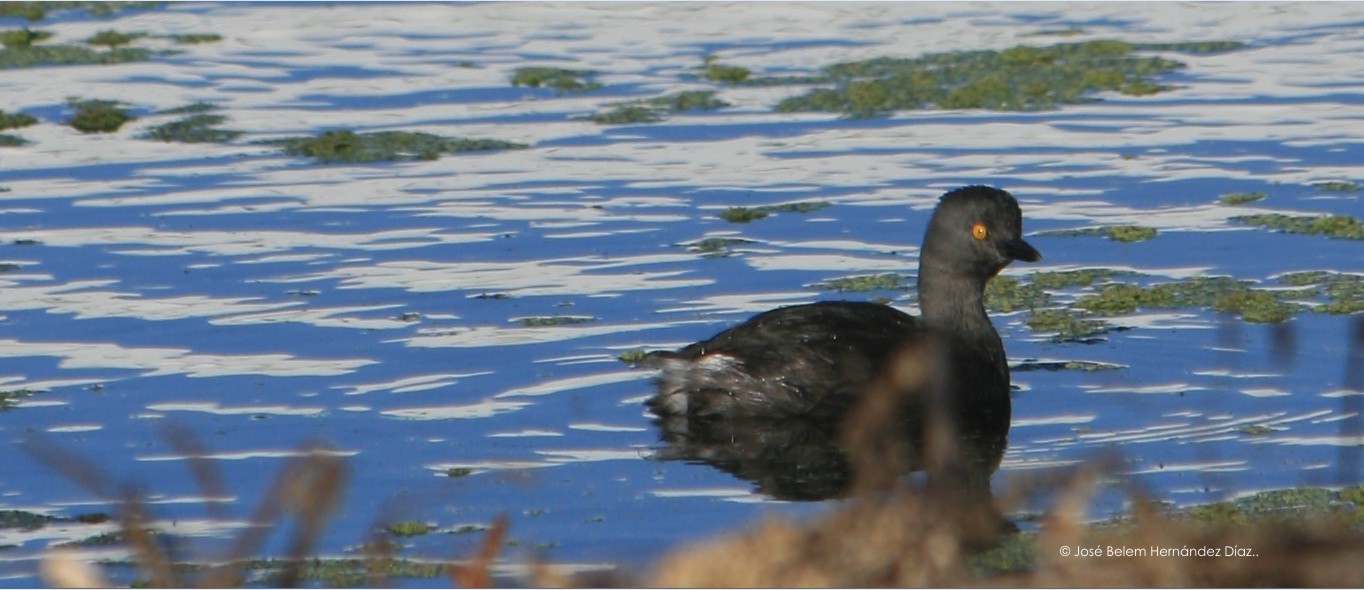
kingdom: Animalia
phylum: Chordata
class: Aves
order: Podicipediformes
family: Podicipedidae
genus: Tachybaptus
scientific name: Tachybaptus dominicus
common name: Least grebe
